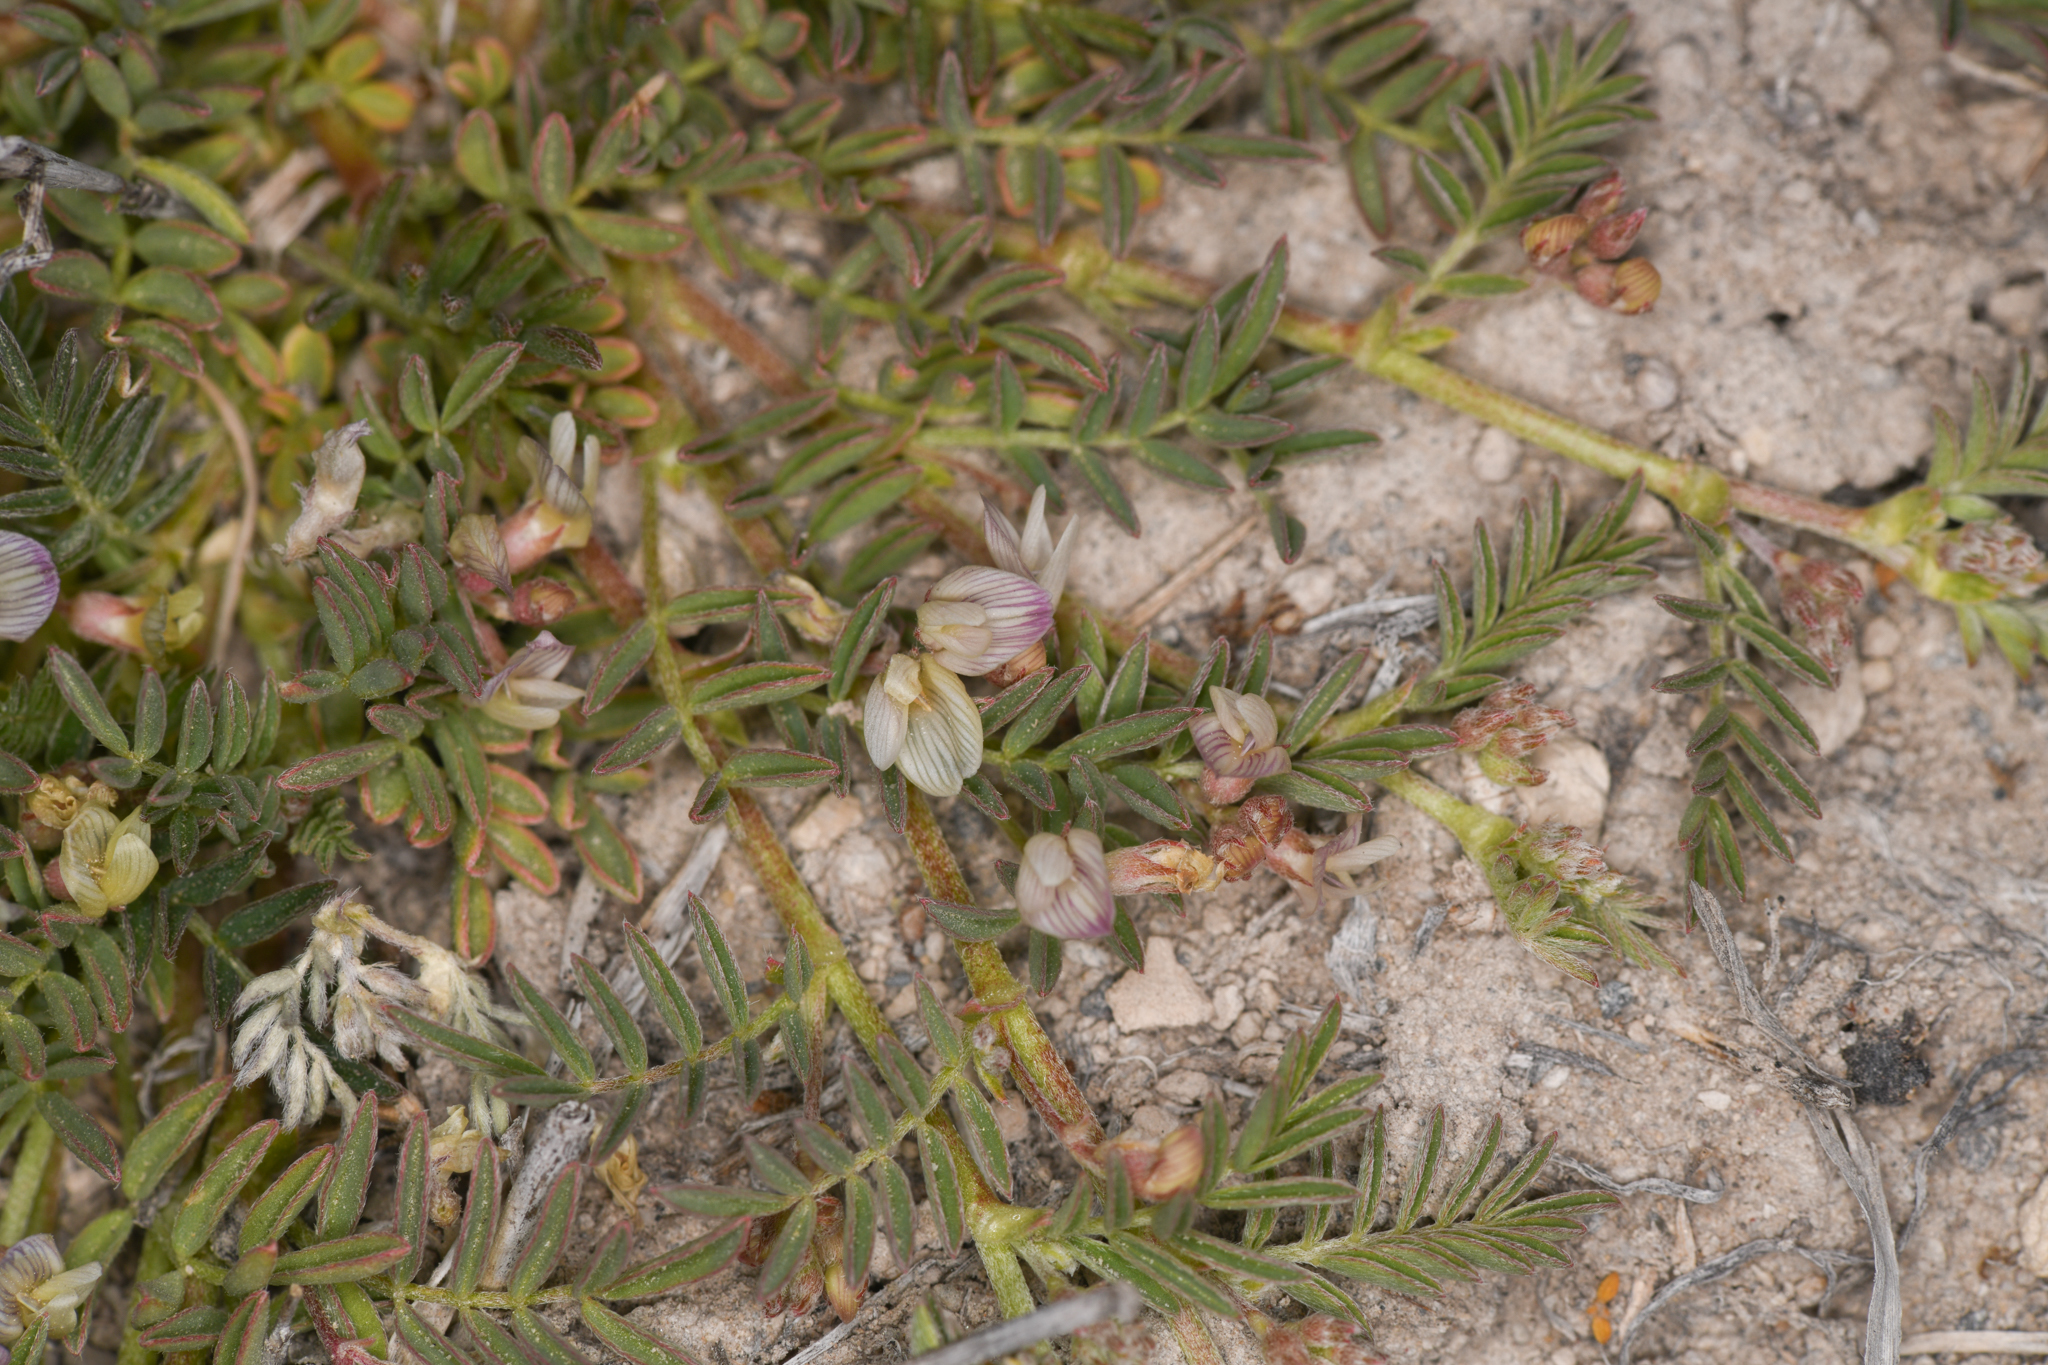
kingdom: Plantae
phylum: Tracheophyta
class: Magnoliopsida
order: Fabales
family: Fabaceae
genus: Astragalus
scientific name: Astragalus lemmonii
